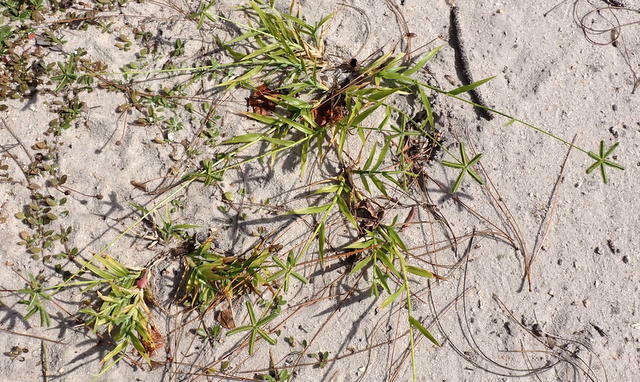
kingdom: Plantae
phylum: Tracheophyta
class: Liliopsida
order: Poales
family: Poaceae
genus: Dactyloctenium
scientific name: Dactyloctenium aegyptium
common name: Egyptian grass
